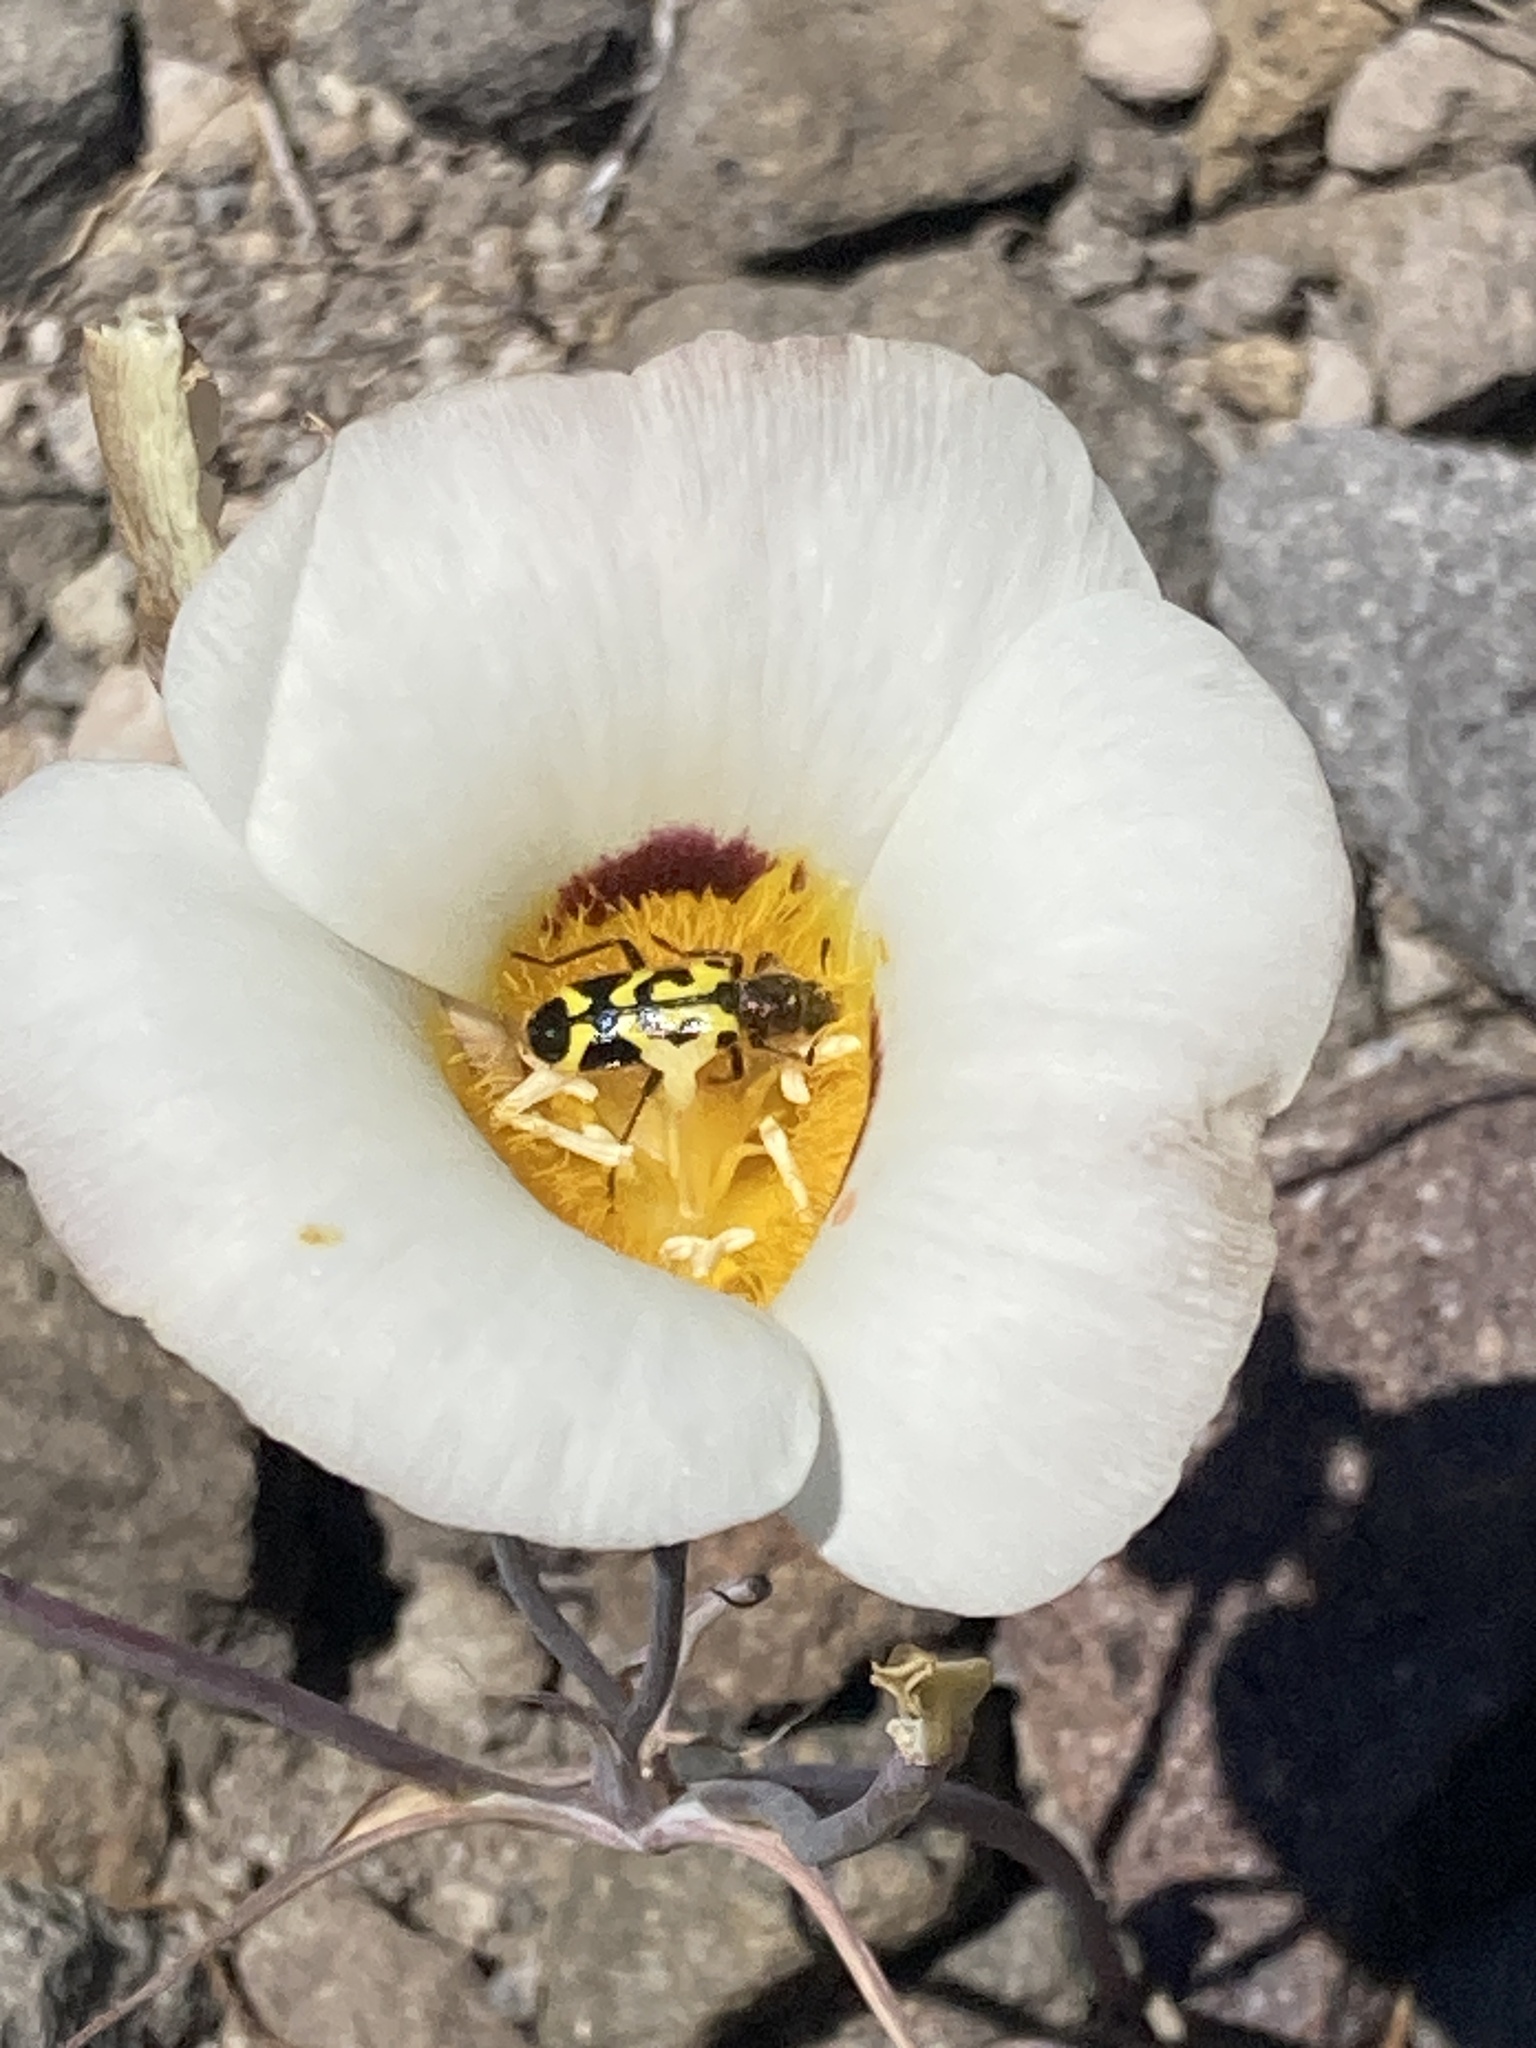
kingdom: Animalia
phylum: Arthropoda
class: Insecta
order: Coleoptera
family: Cleridae
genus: Trichodes
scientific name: Trichodes ornatus
